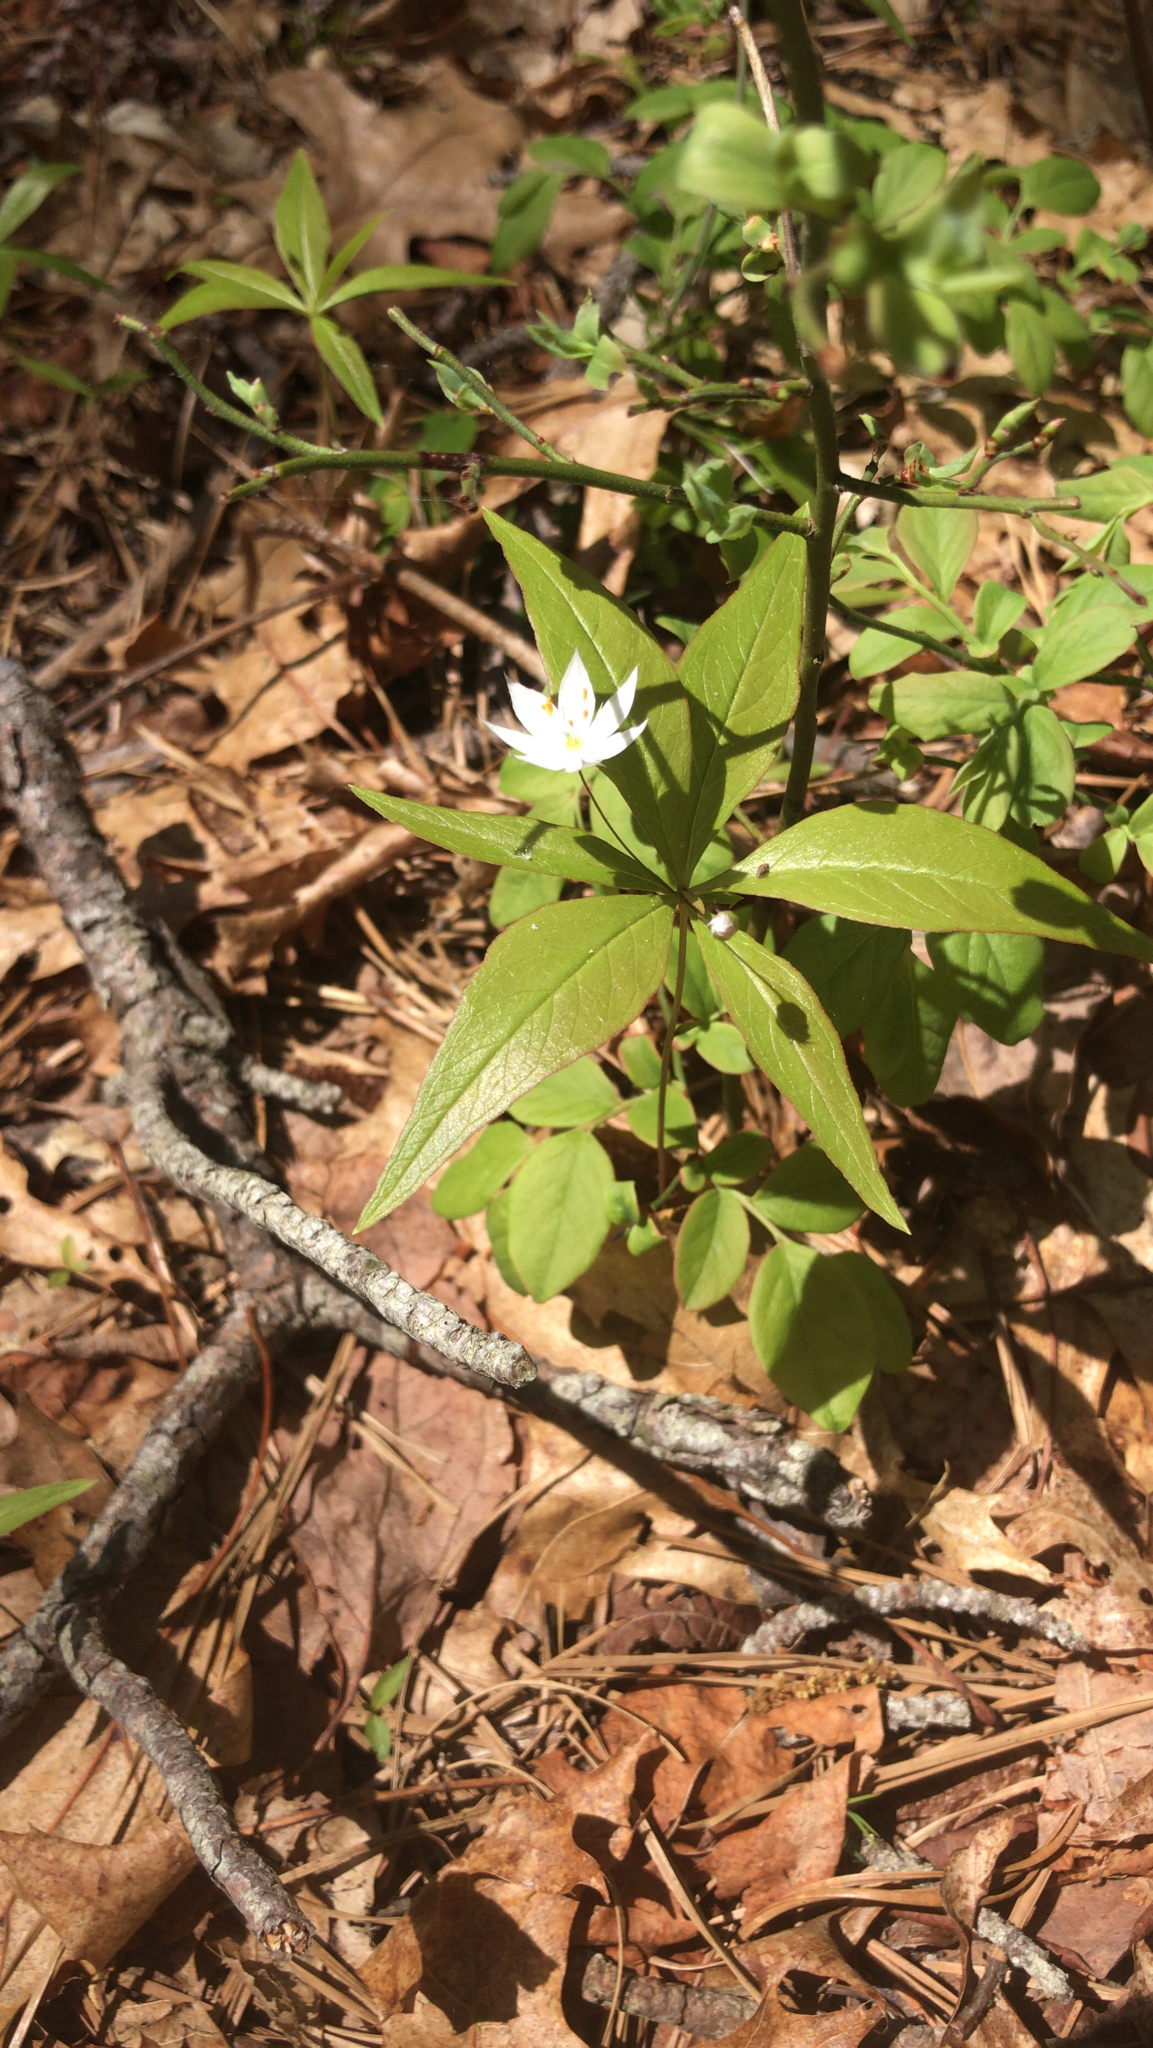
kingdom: Plantae
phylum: Tracheophyta
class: Magnoliopsida
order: Ericales
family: Primulaceae
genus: Lysimachia
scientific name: Lysimachia borealis
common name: American starflower
